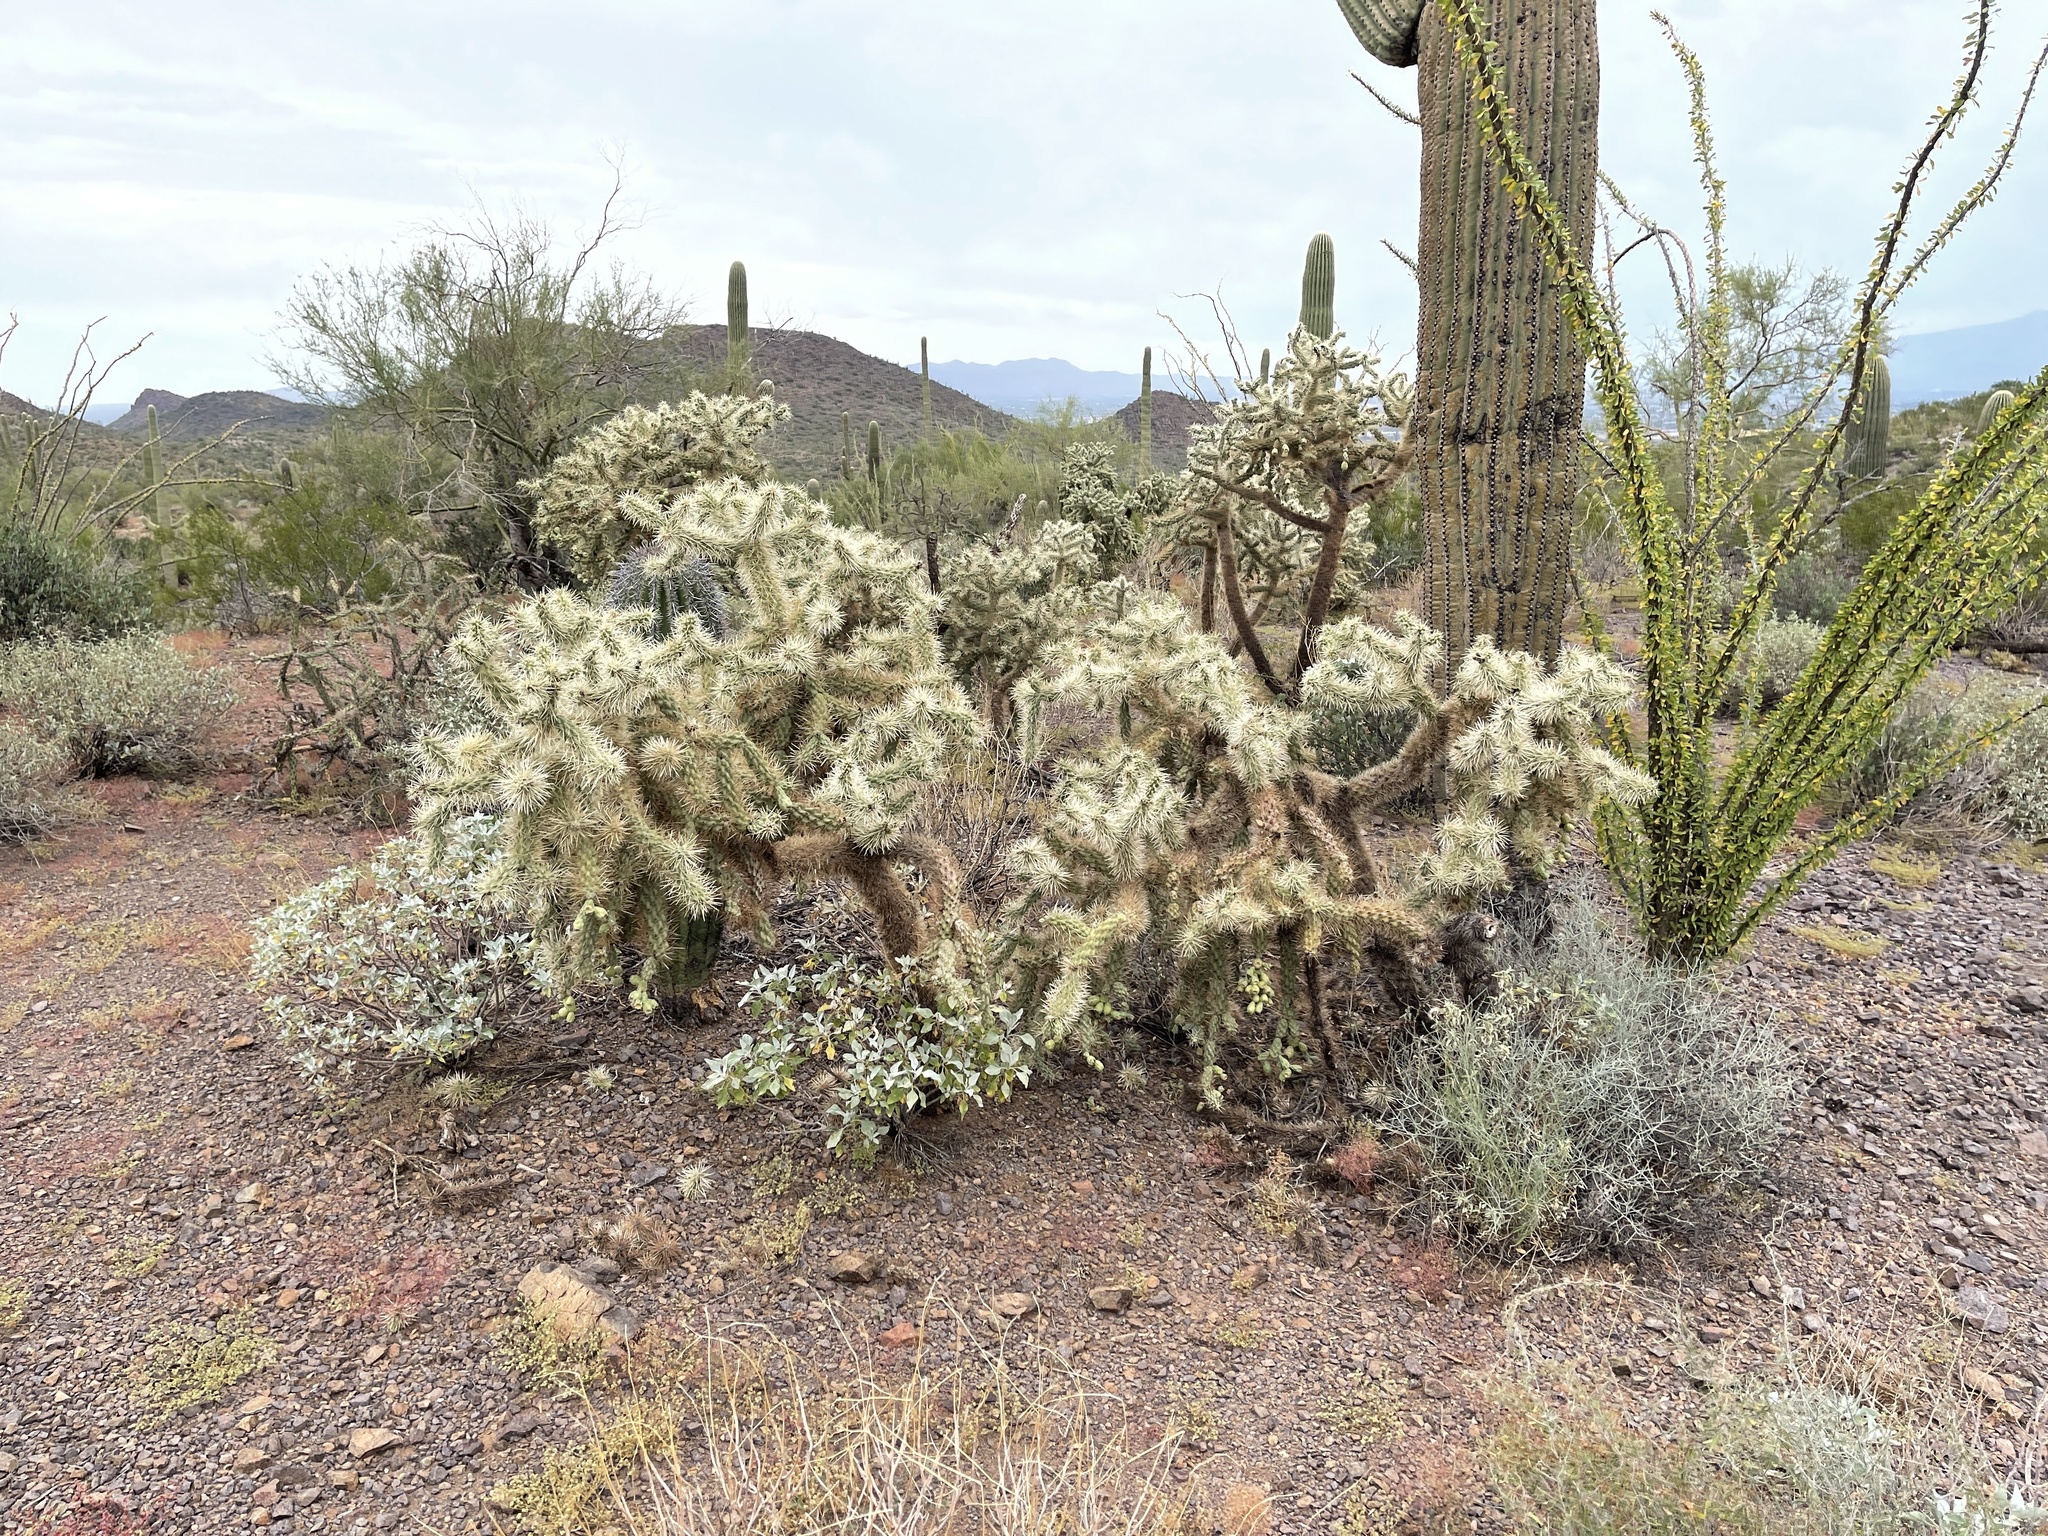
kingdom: Plantae
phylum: Tracheophyta
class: Magnoliopsida
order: Caryophyllales
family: Cactaceae
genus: Cylindropuntia
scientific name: Cylindropuntia fulgida
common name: Jumping cholla
